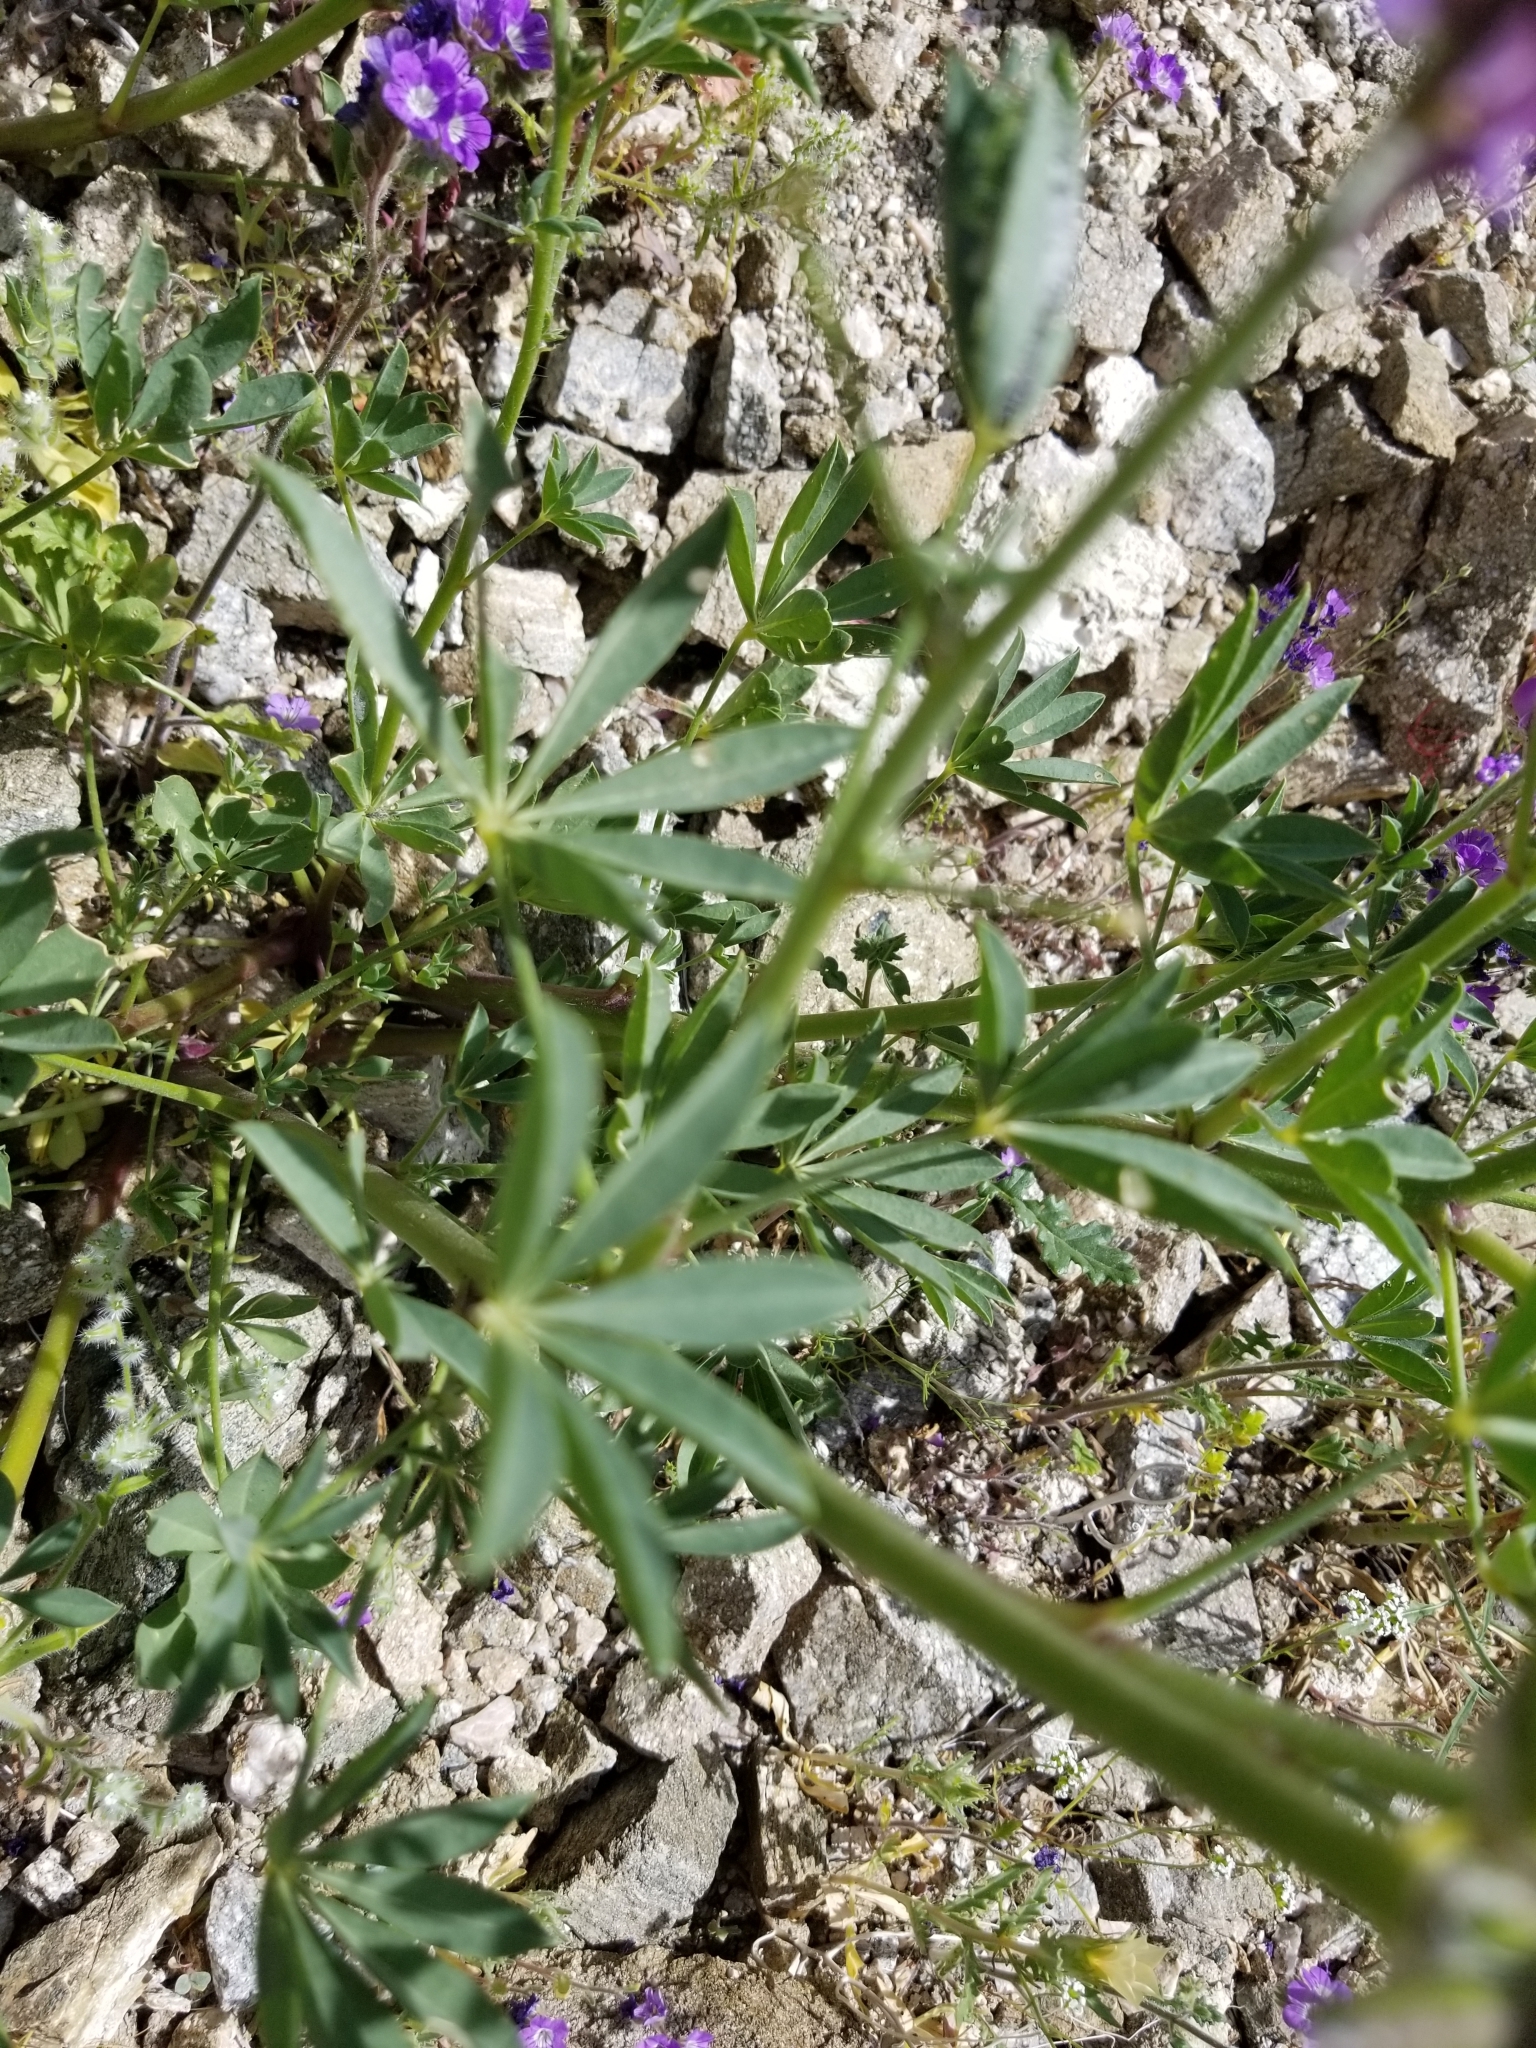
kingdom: Plantae
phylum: Tracheophyta
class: Magnoliopsida
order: Fabales
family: Fabaceae
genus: Lupinus
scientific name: Lupinus arizonicus
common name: Arizona lupine
